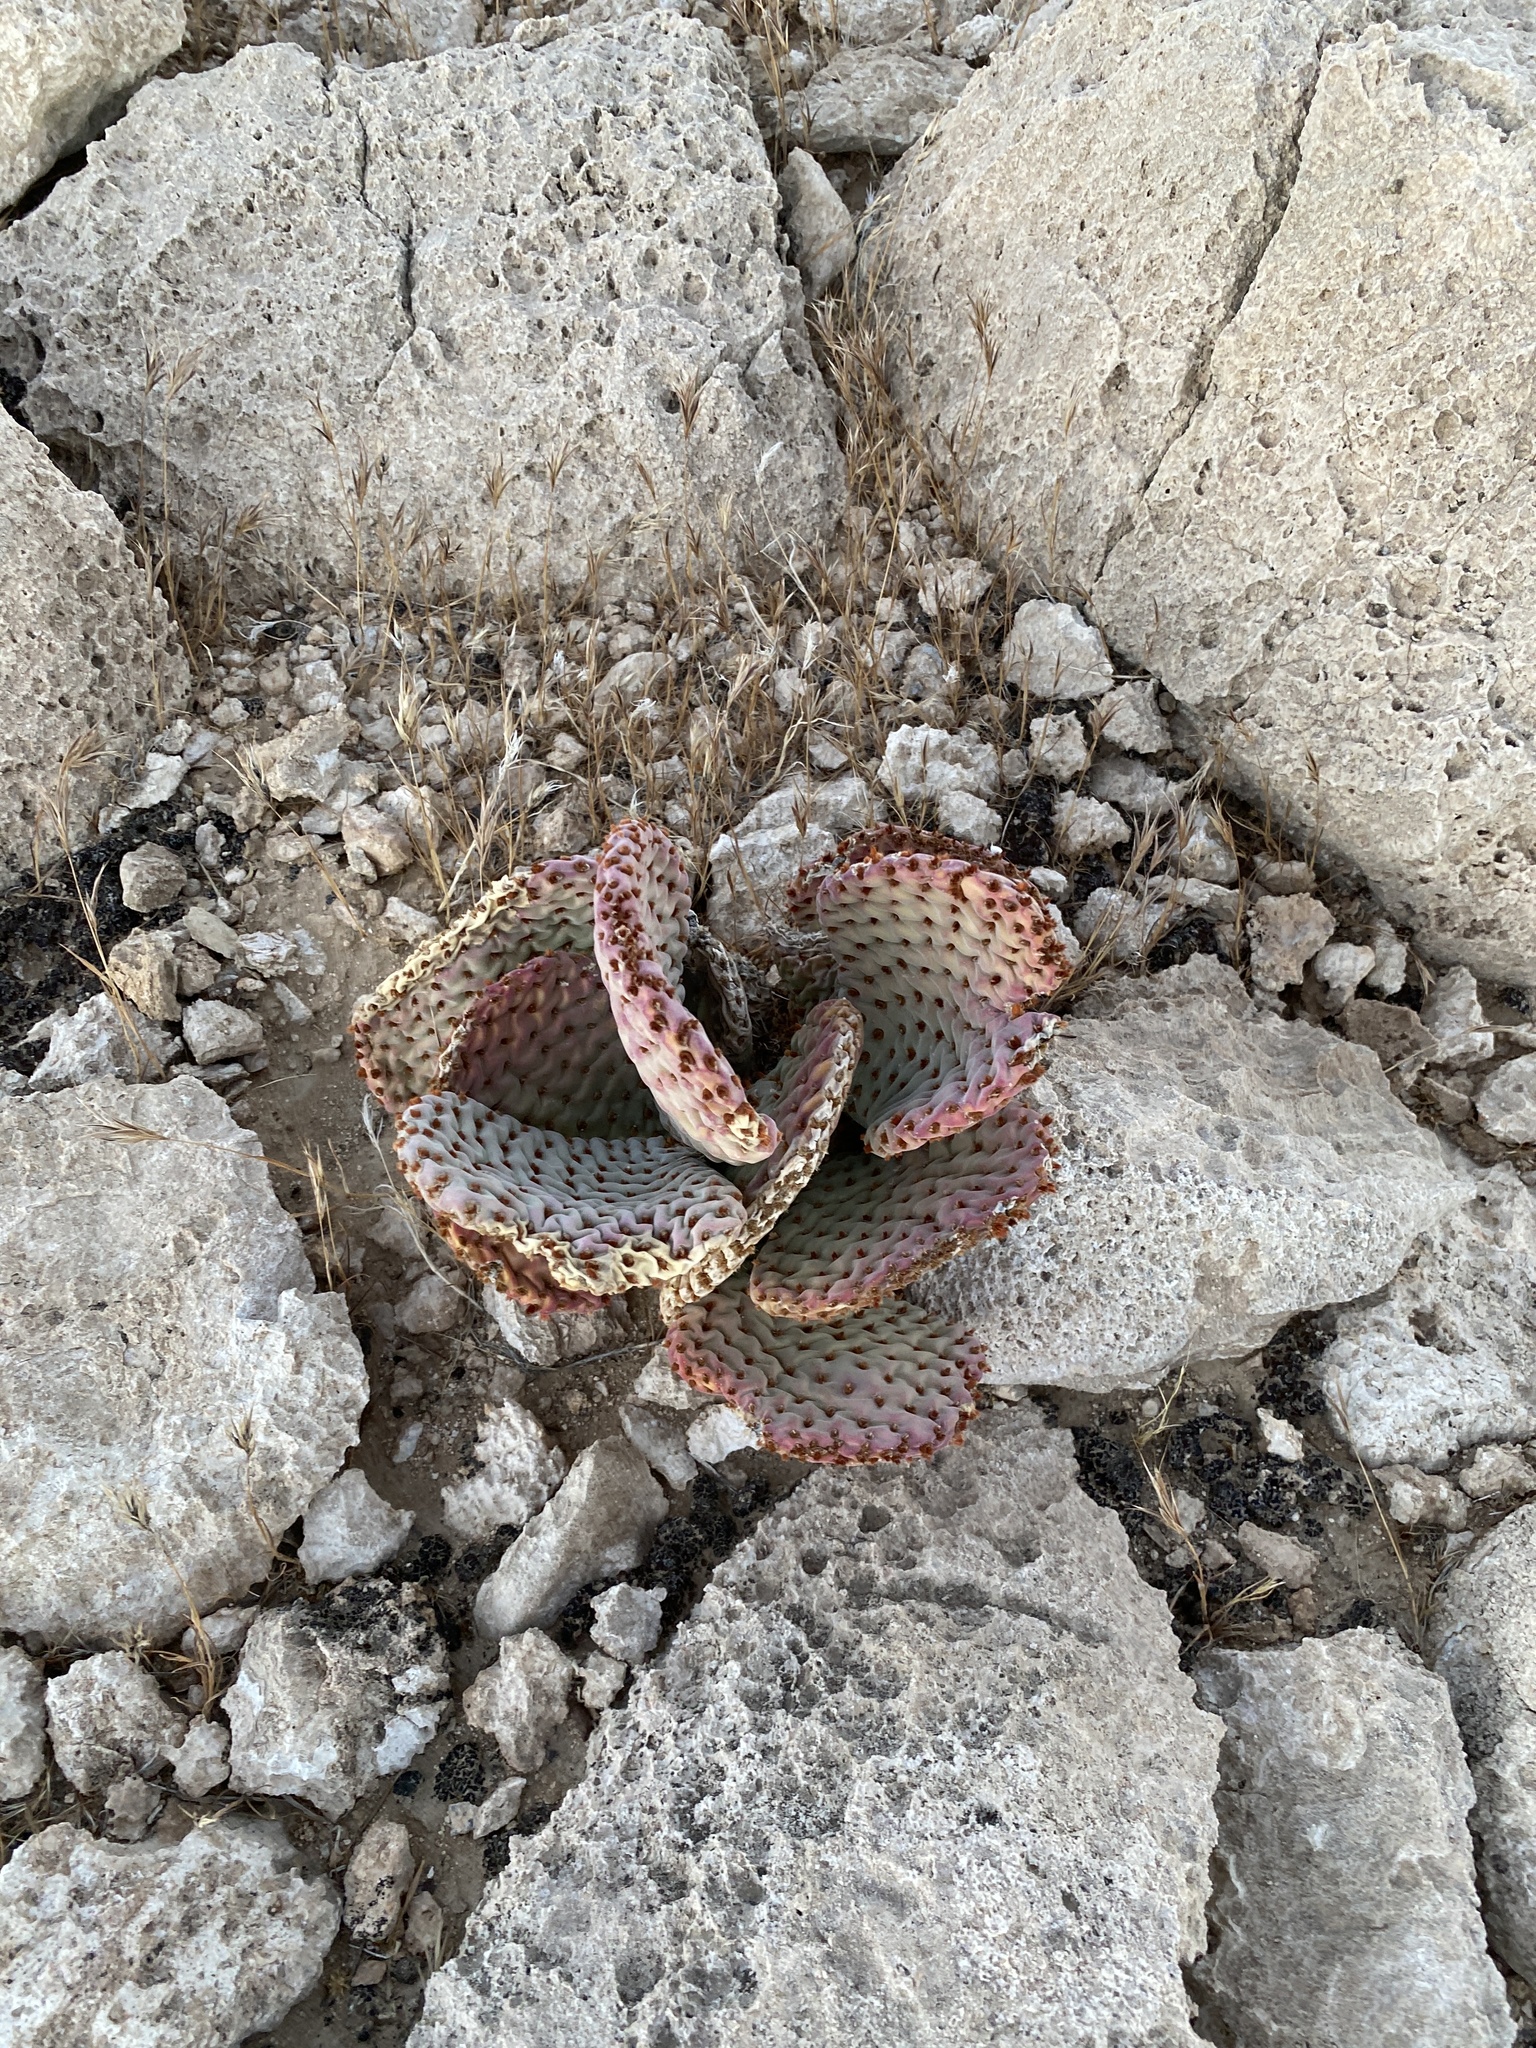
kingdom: Plantae
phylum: Tracheophyta
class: Magnoliopsida
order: Caryophyllales
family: Cactaceae
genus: Opuntia
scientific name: Opuntia basilaris
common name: Beavertail prickly-pear
